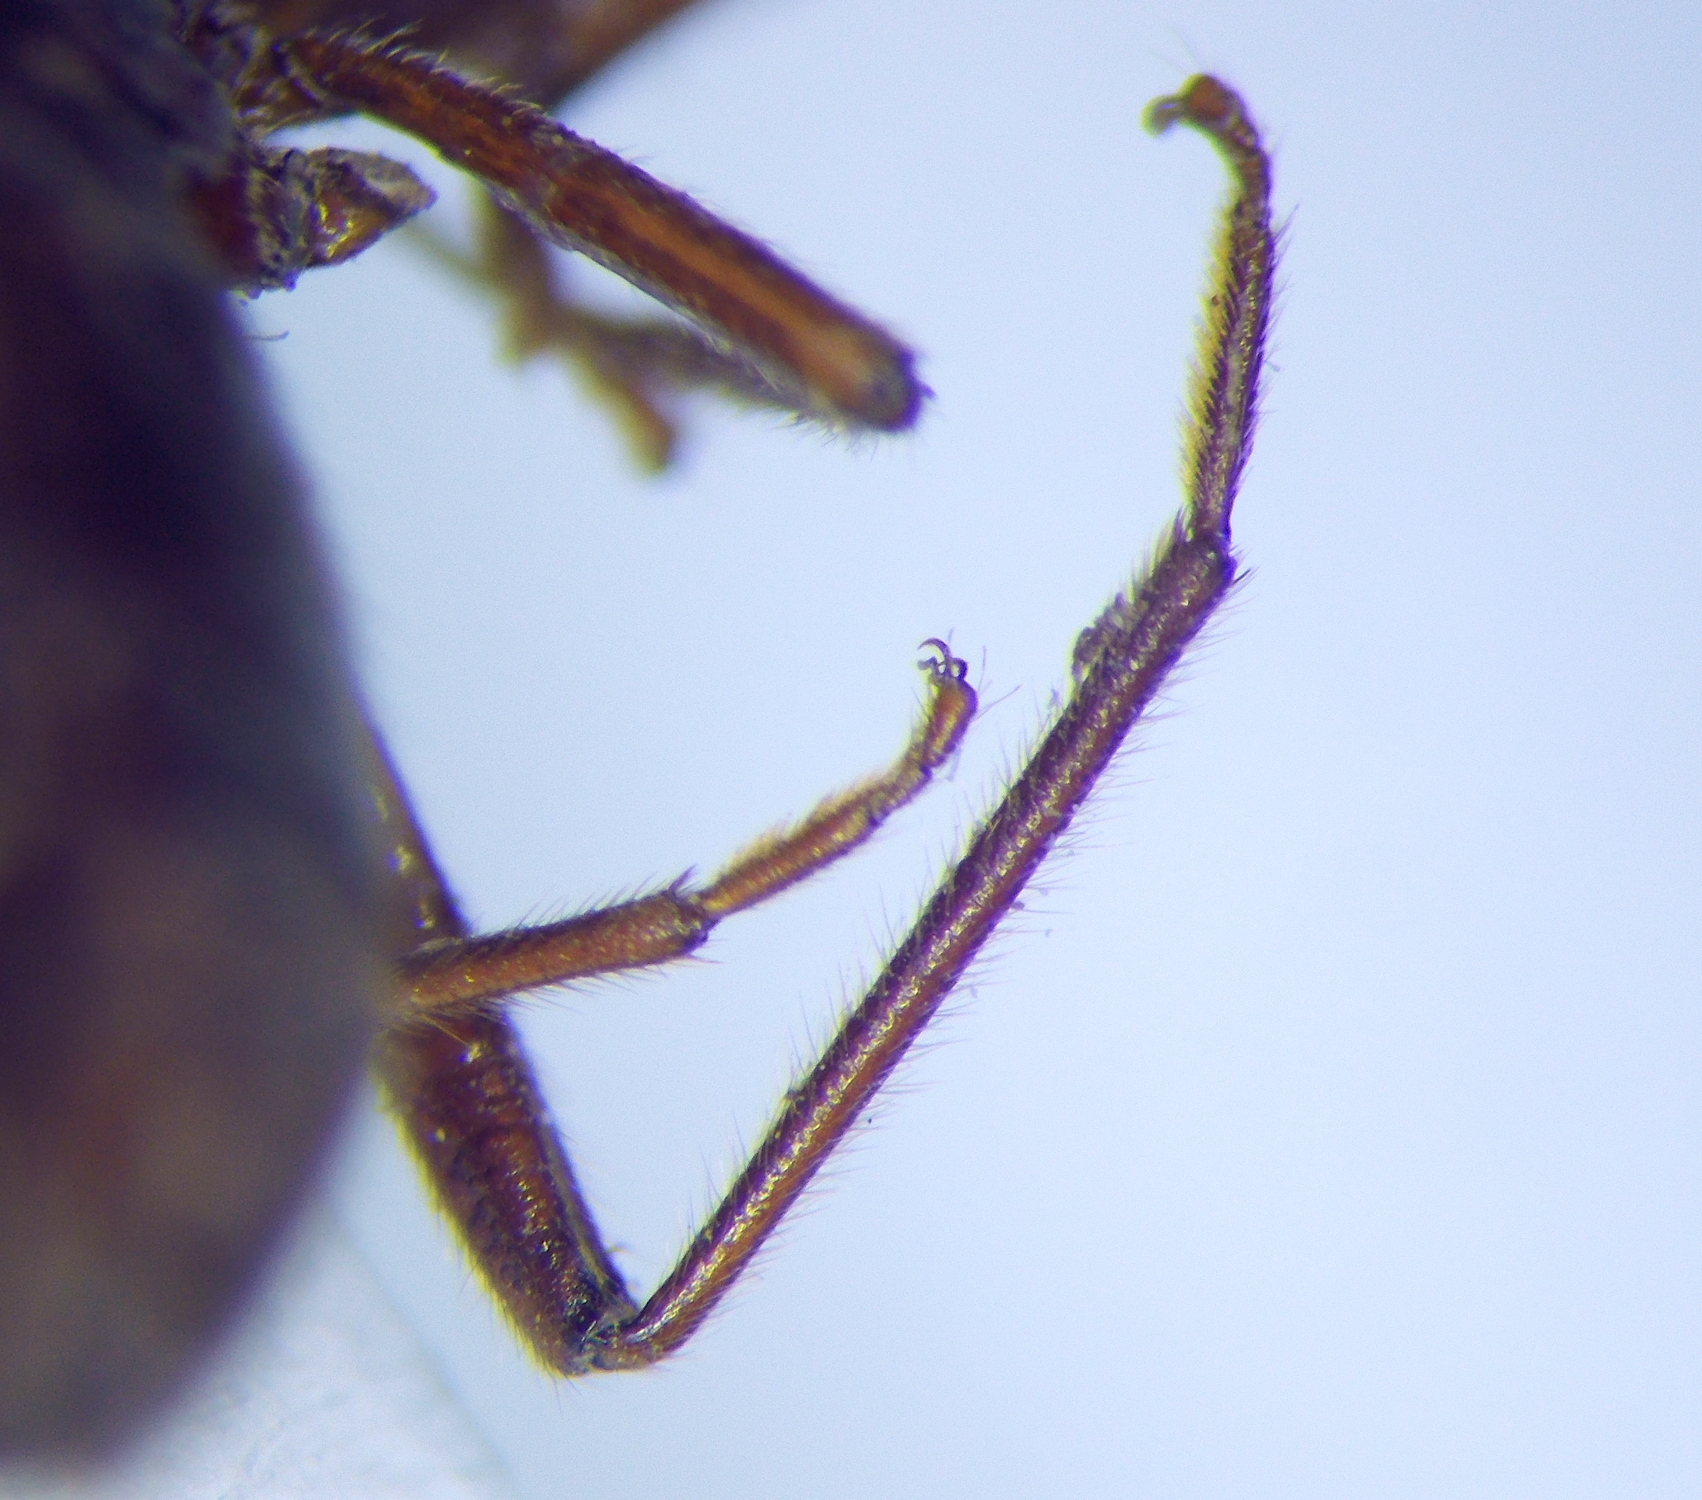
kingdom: Animalia
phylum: Arthropoda
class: Insecta
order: Hemiptera
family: Rhyparochromidae
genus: Eremocoris
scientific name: Eremocoris podagricus
